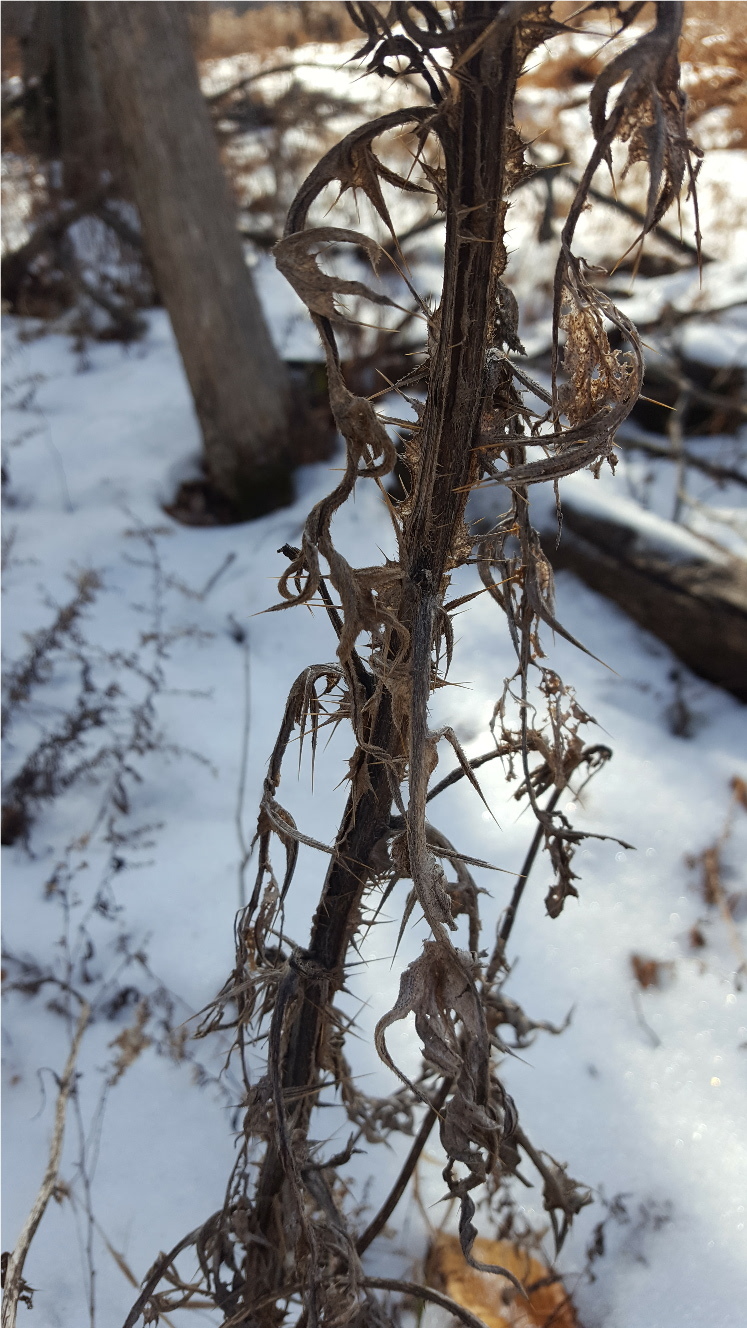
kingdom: Plantae
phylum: Tracheophyta
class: Magnoliopsida
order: Asterales
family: Asteraceae
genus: Cirsium
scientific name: Cirsium vulgare
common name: Bull thistle
